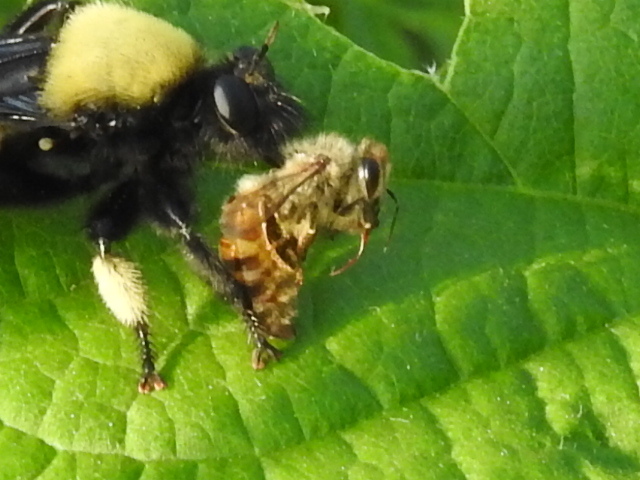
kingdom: Animalia
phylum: Arthropoda
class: Insecta
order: Hymenoptera
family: Apidae
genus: Apis
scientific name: Apis mellifera
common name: Honey bee
